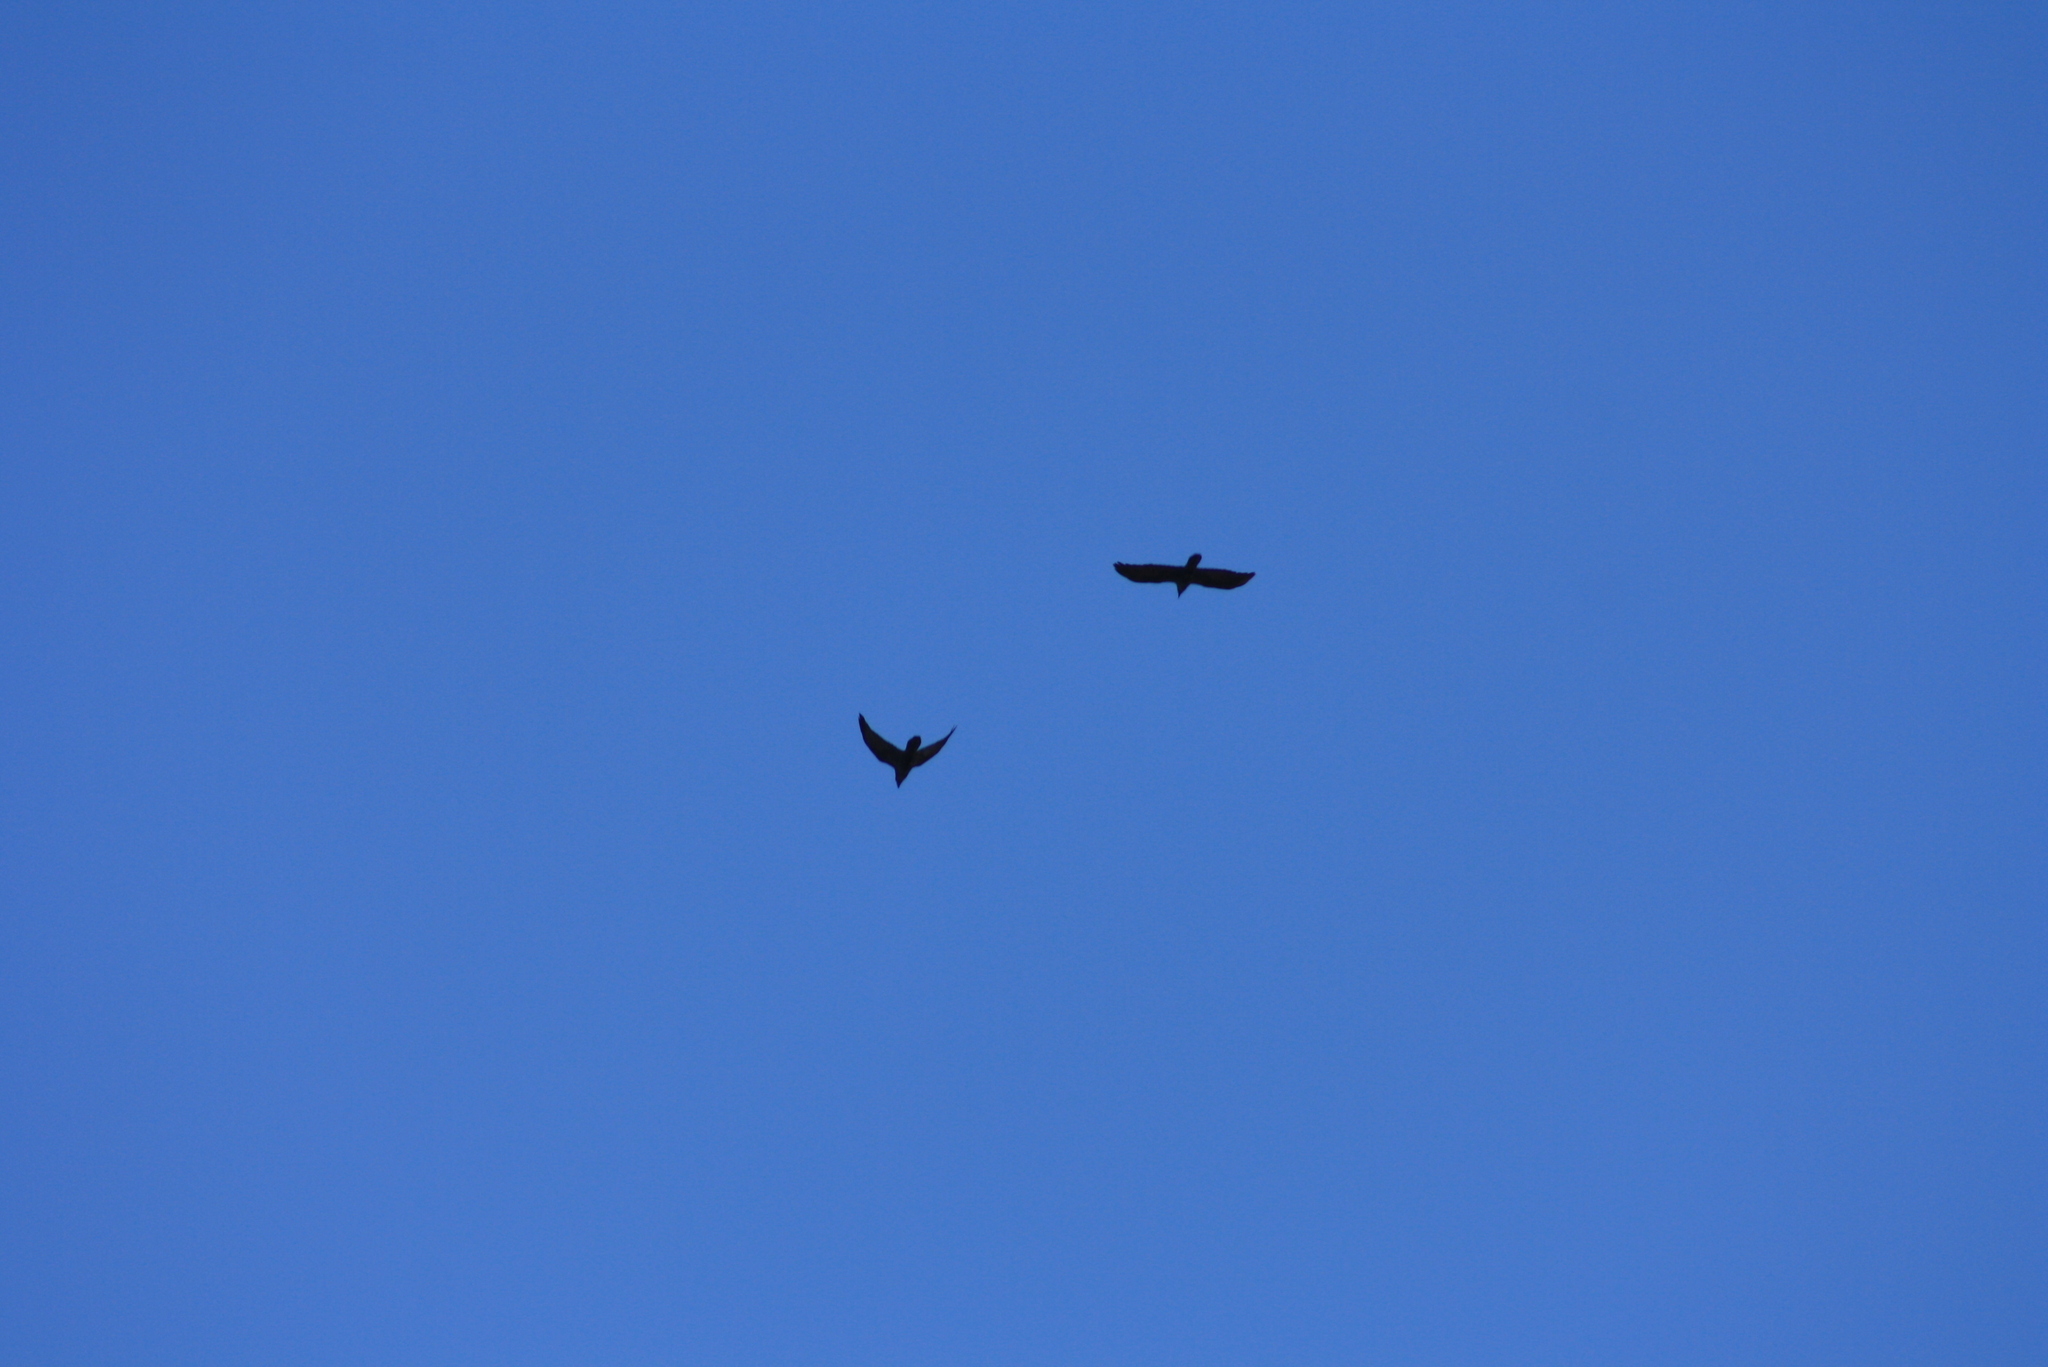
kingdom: Animalia
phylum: Chordata
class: Aves
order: Passeriformes
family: Corvidae
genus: Corvus
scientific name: Corvus corax
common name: Common raven
